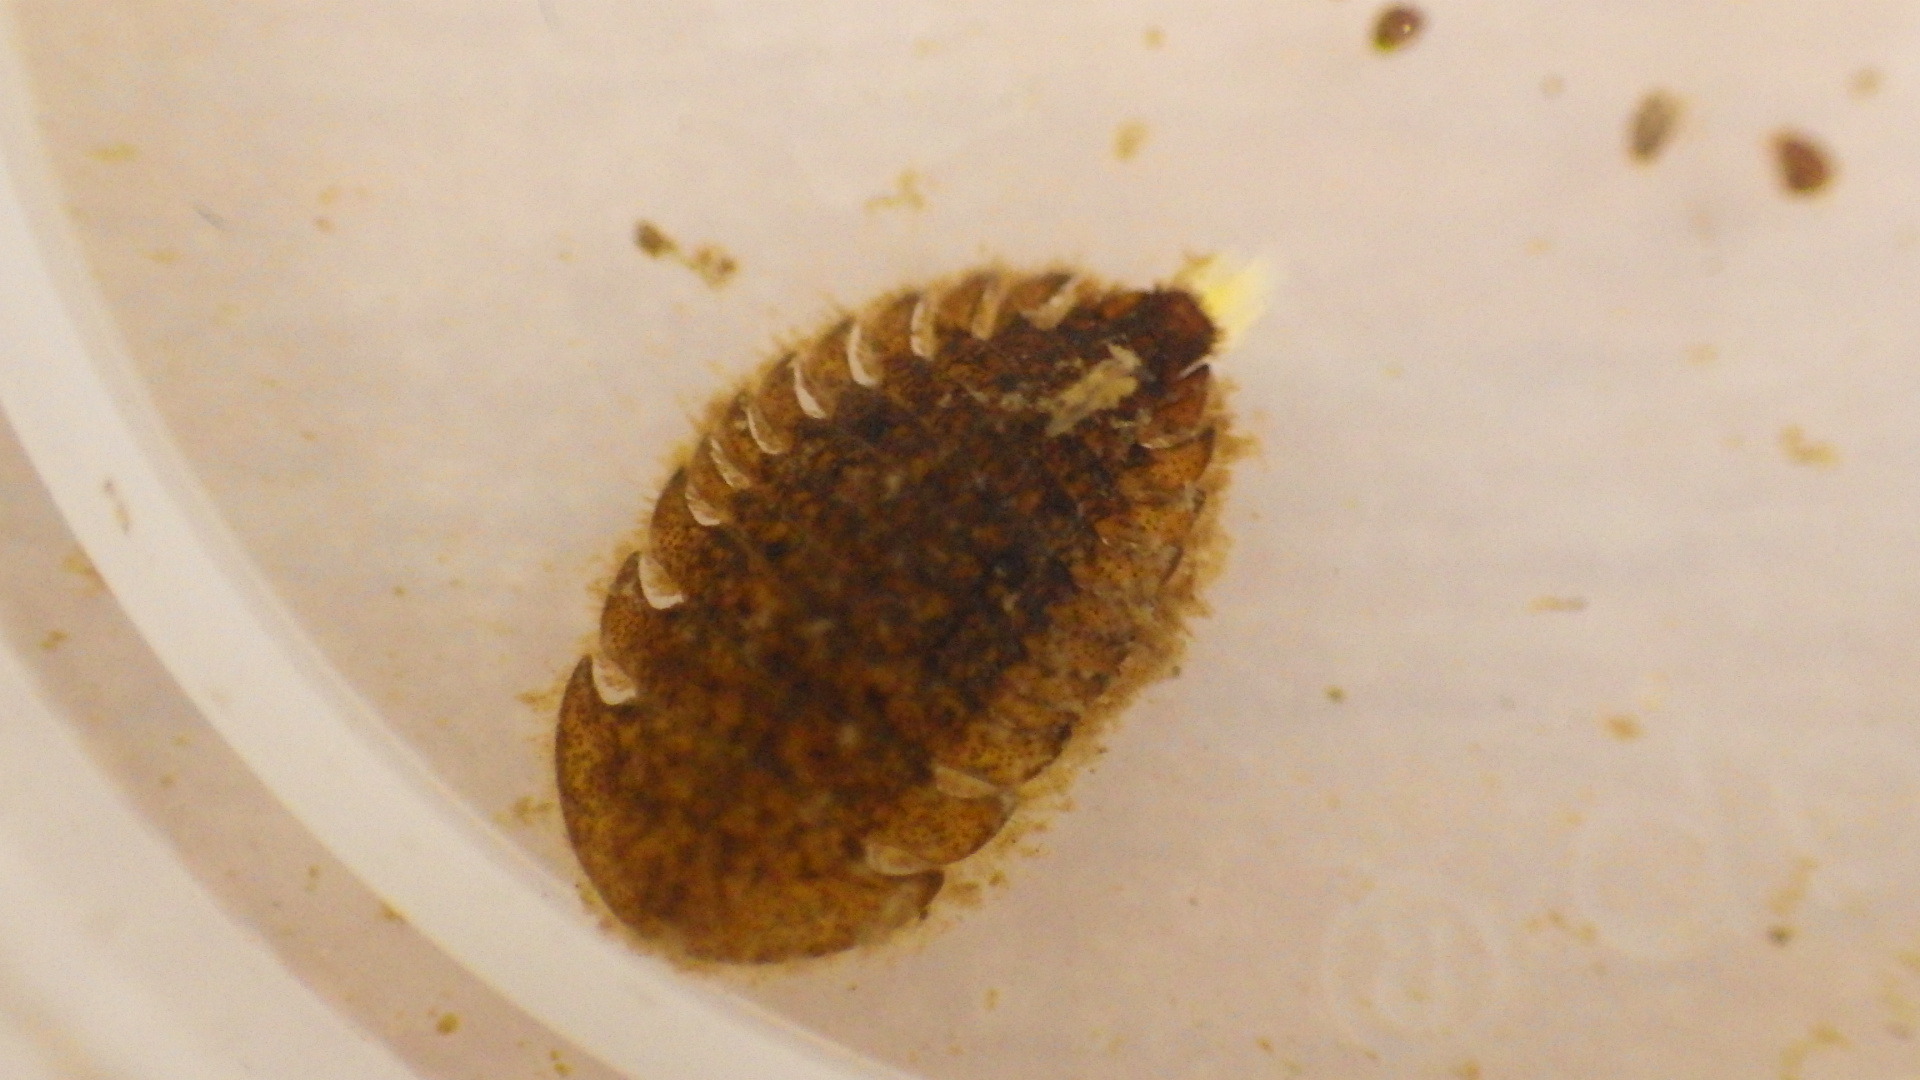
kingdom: Animalia
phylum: Arthropoda
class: Insecta
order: Coleoptera
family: Psephenidae
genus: Ectopria
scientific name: Ectopria nervosa
